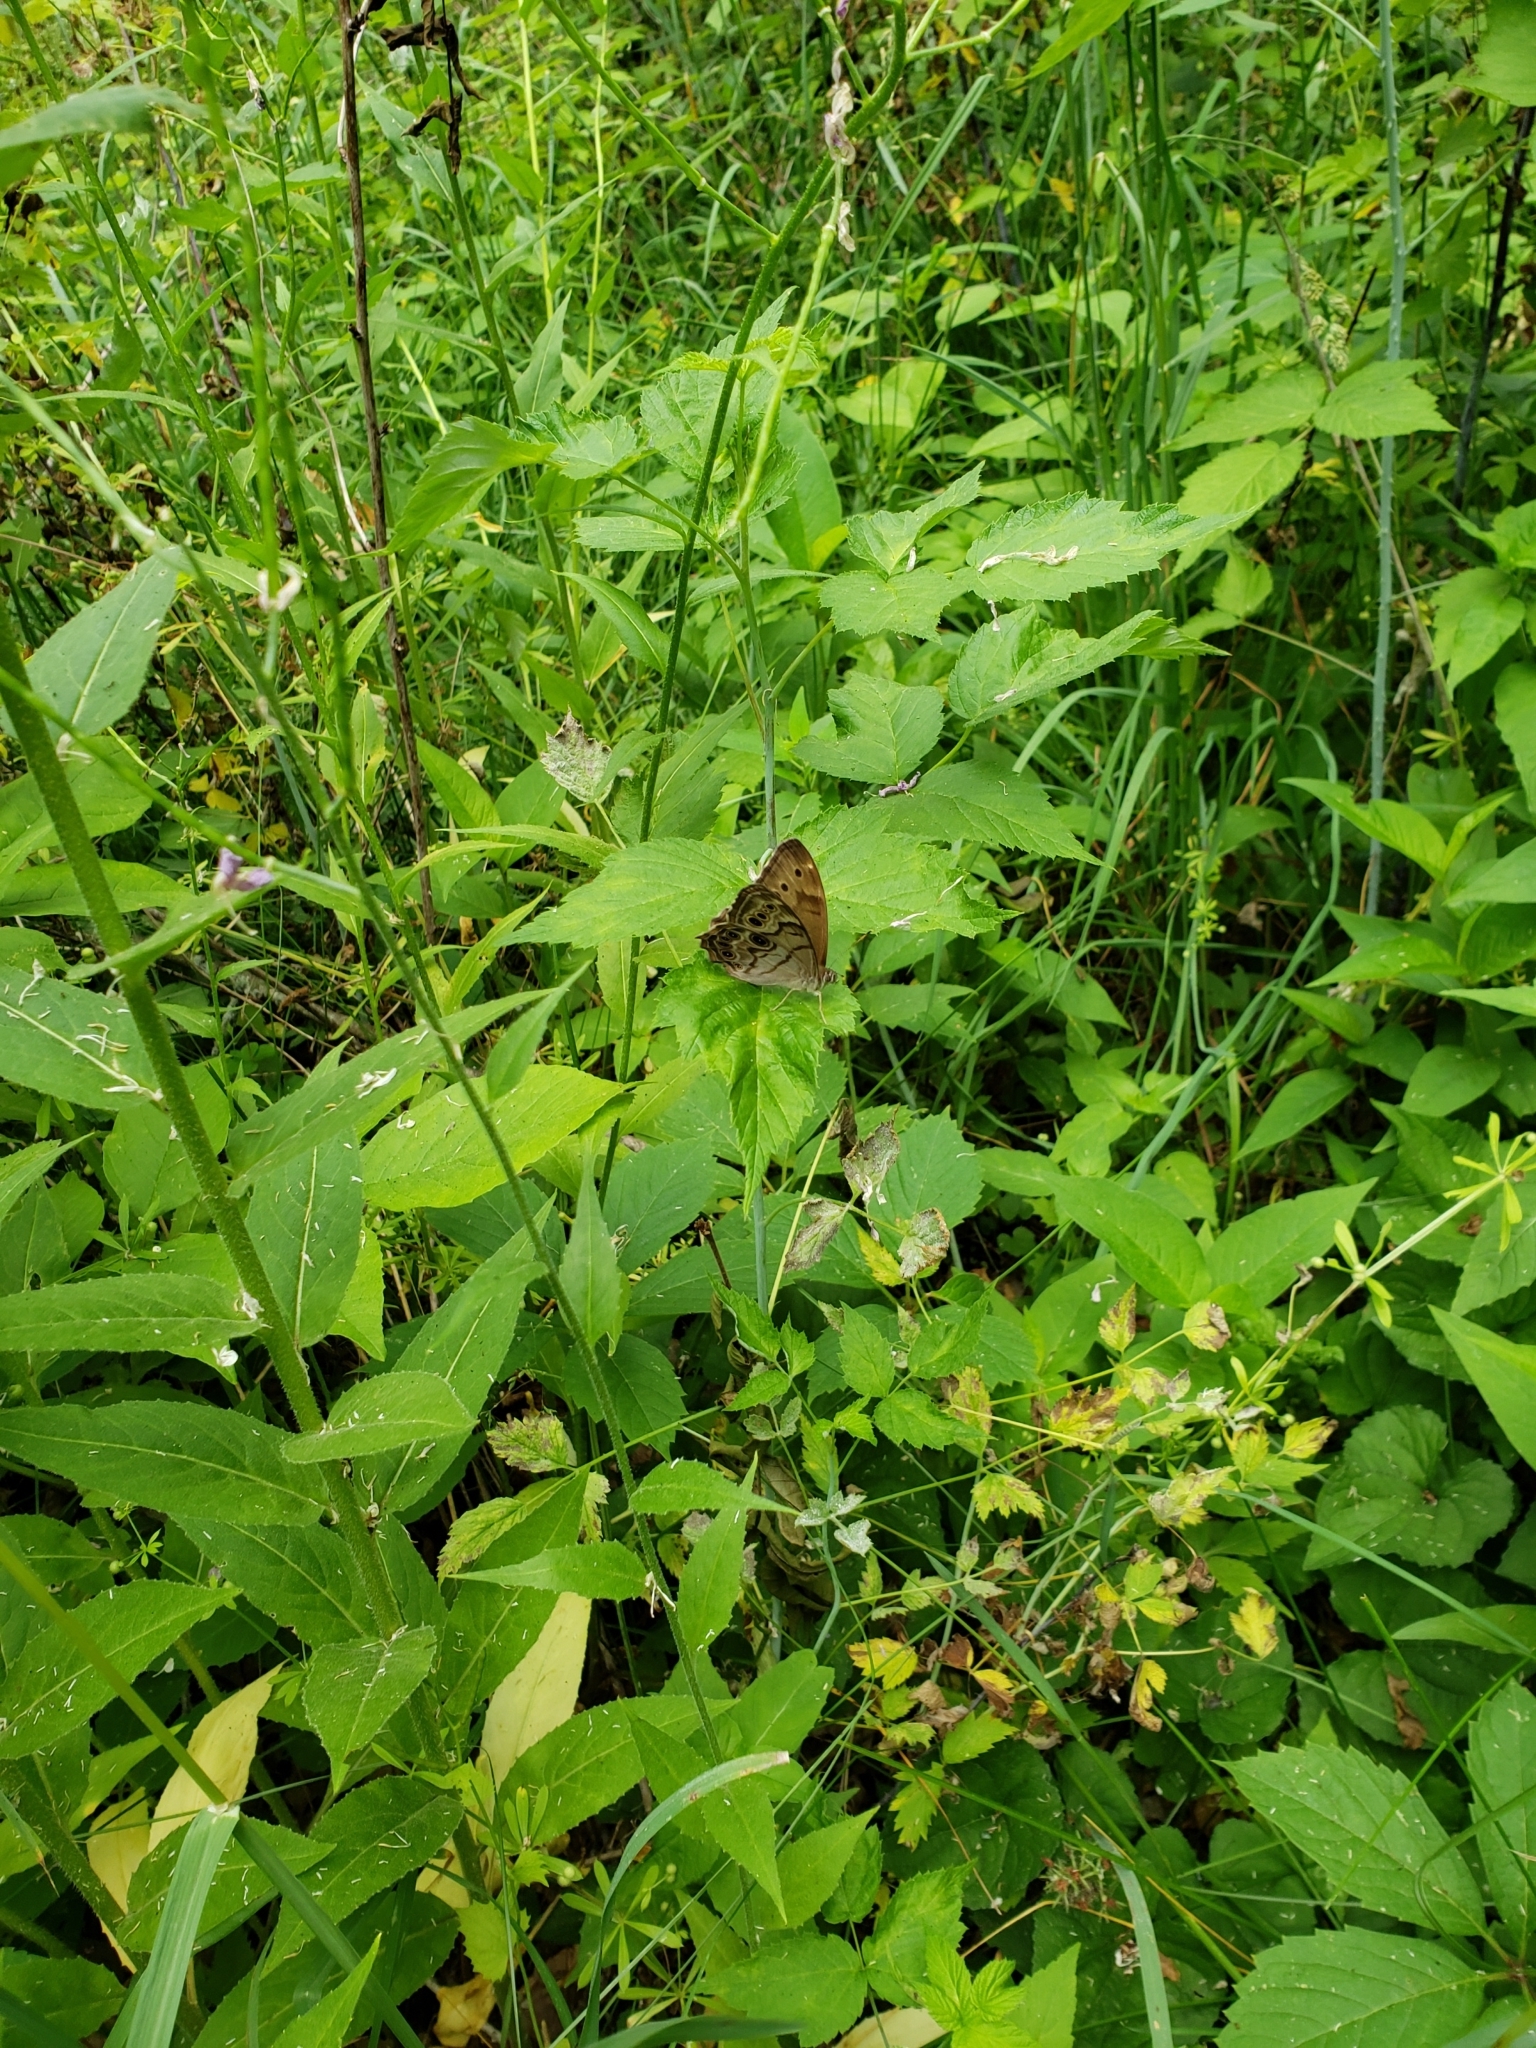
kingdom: Animalia
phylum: Arthropoda
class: Insecta
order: Lepidoptera
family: Nymphalidae
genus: Lethe
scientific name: Lethe anthedon
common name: Northern pearly-eye
